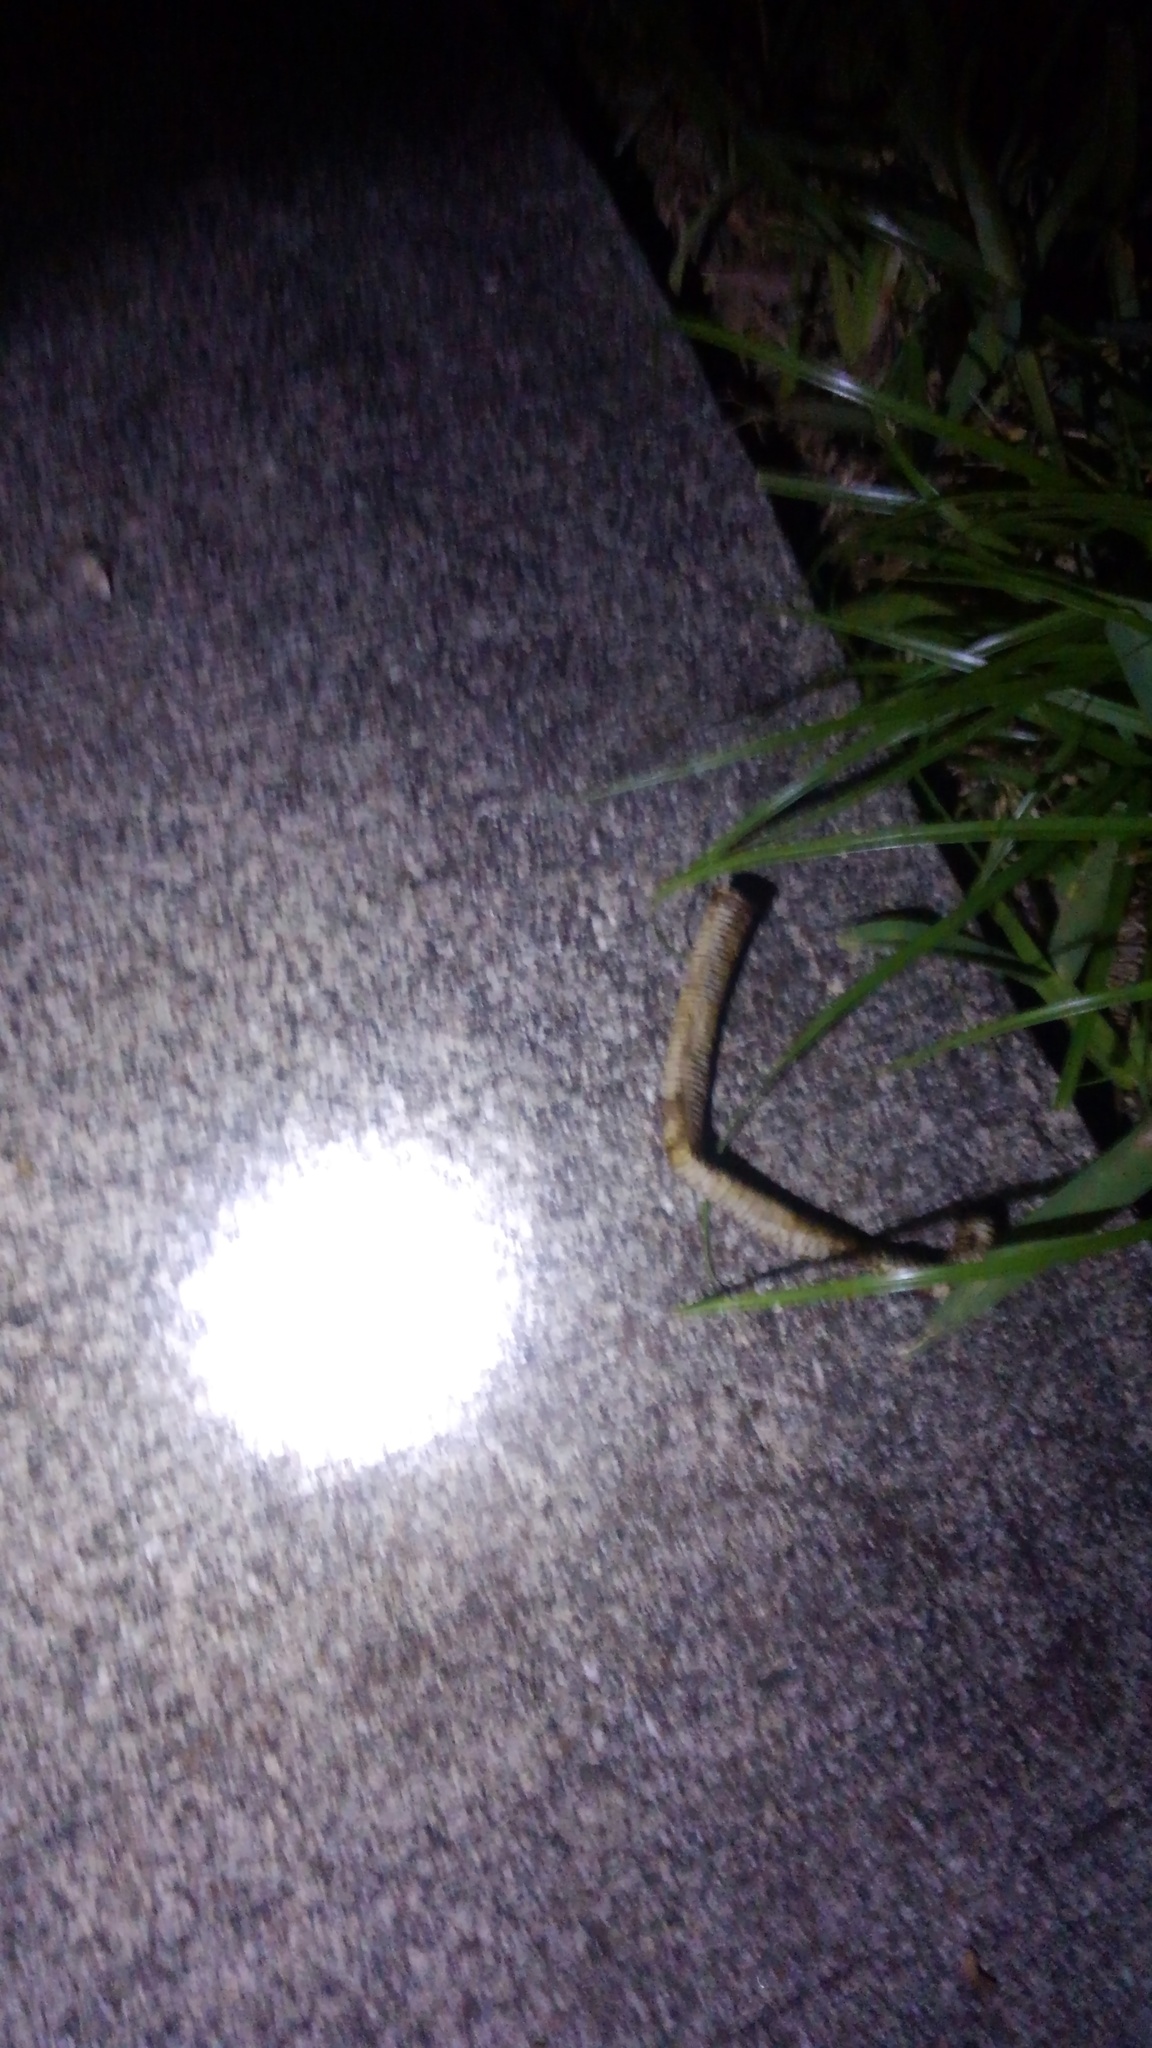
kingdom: Animalia
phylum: Chordata
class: Aves
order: Anseriformes
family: Anatidae
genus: Cairina
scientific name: Cairina moschata
